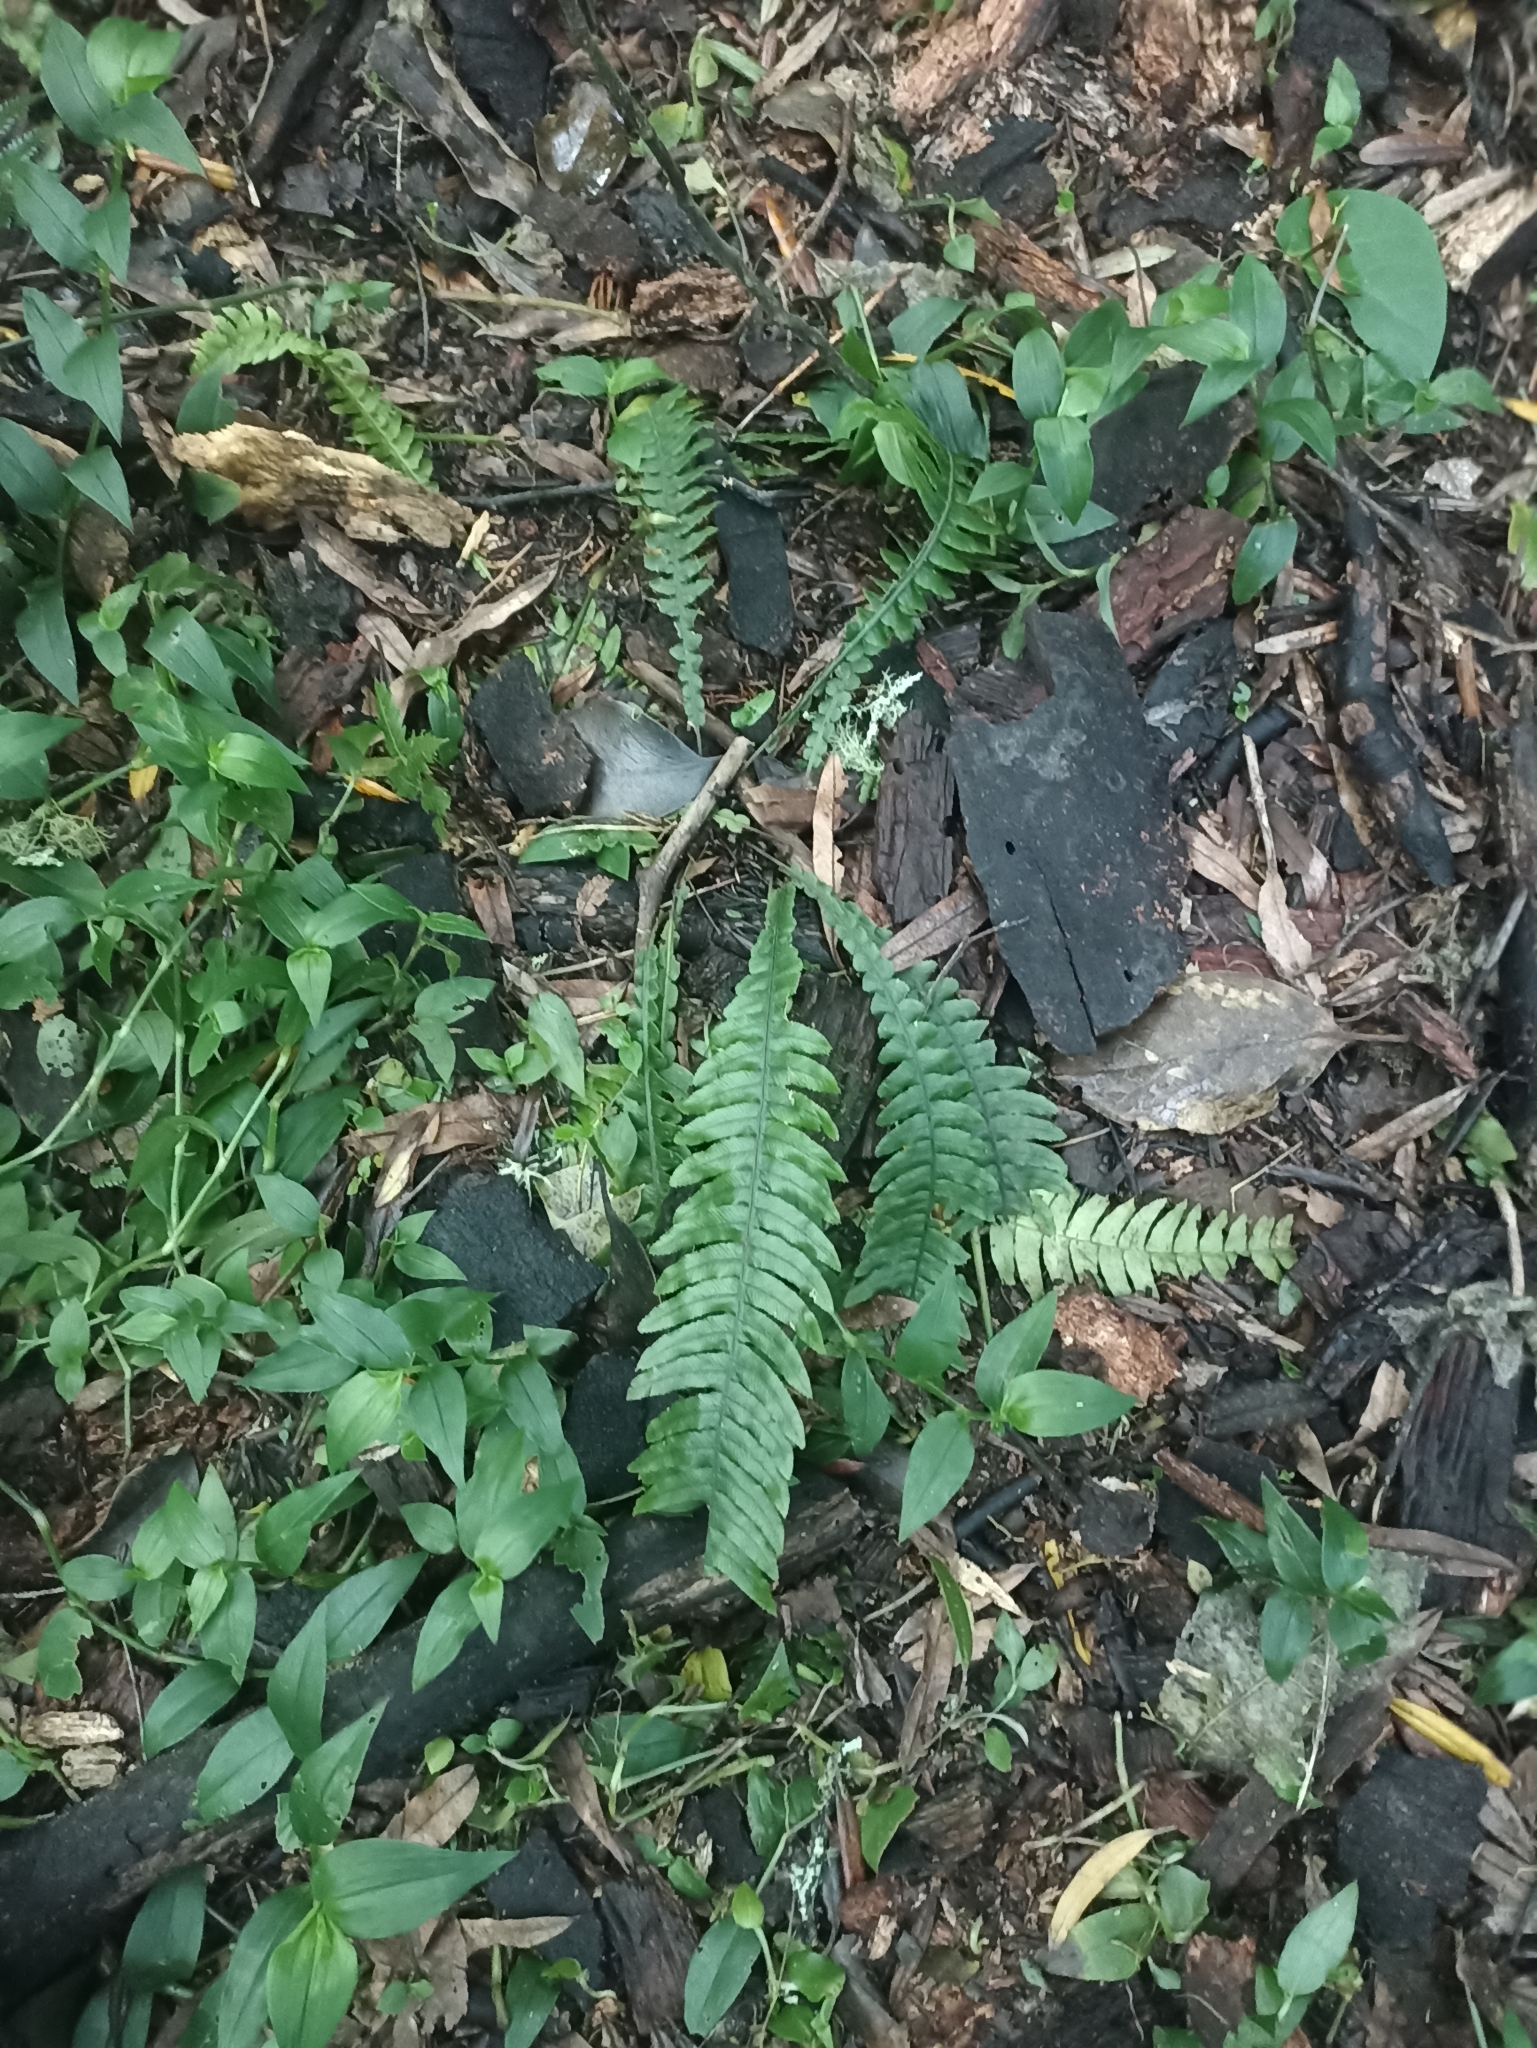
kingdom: Plantae
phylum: Tracheophyta
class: Polypodiopsida
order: Polypodiales
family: Blechnaceae
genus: Austroblechnum
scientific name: Austroblechnum lanceolatum
